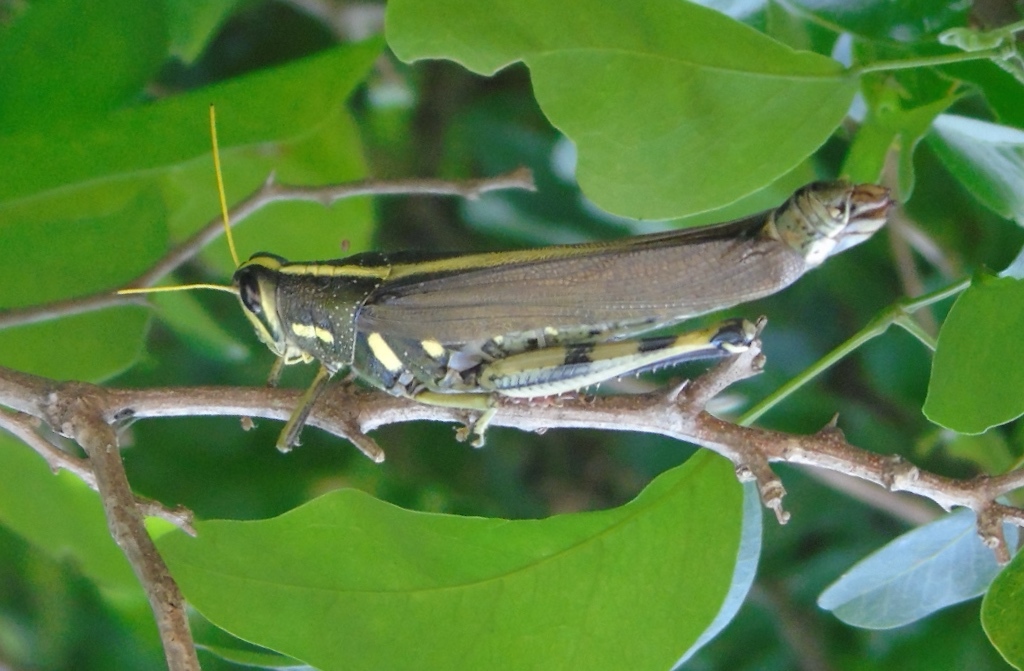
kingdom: Animalia
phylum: Arthropoda
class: Insecta
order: Orthoptera
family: Acrididae
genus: Schistocerca
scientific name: Schistocerca albolineata
